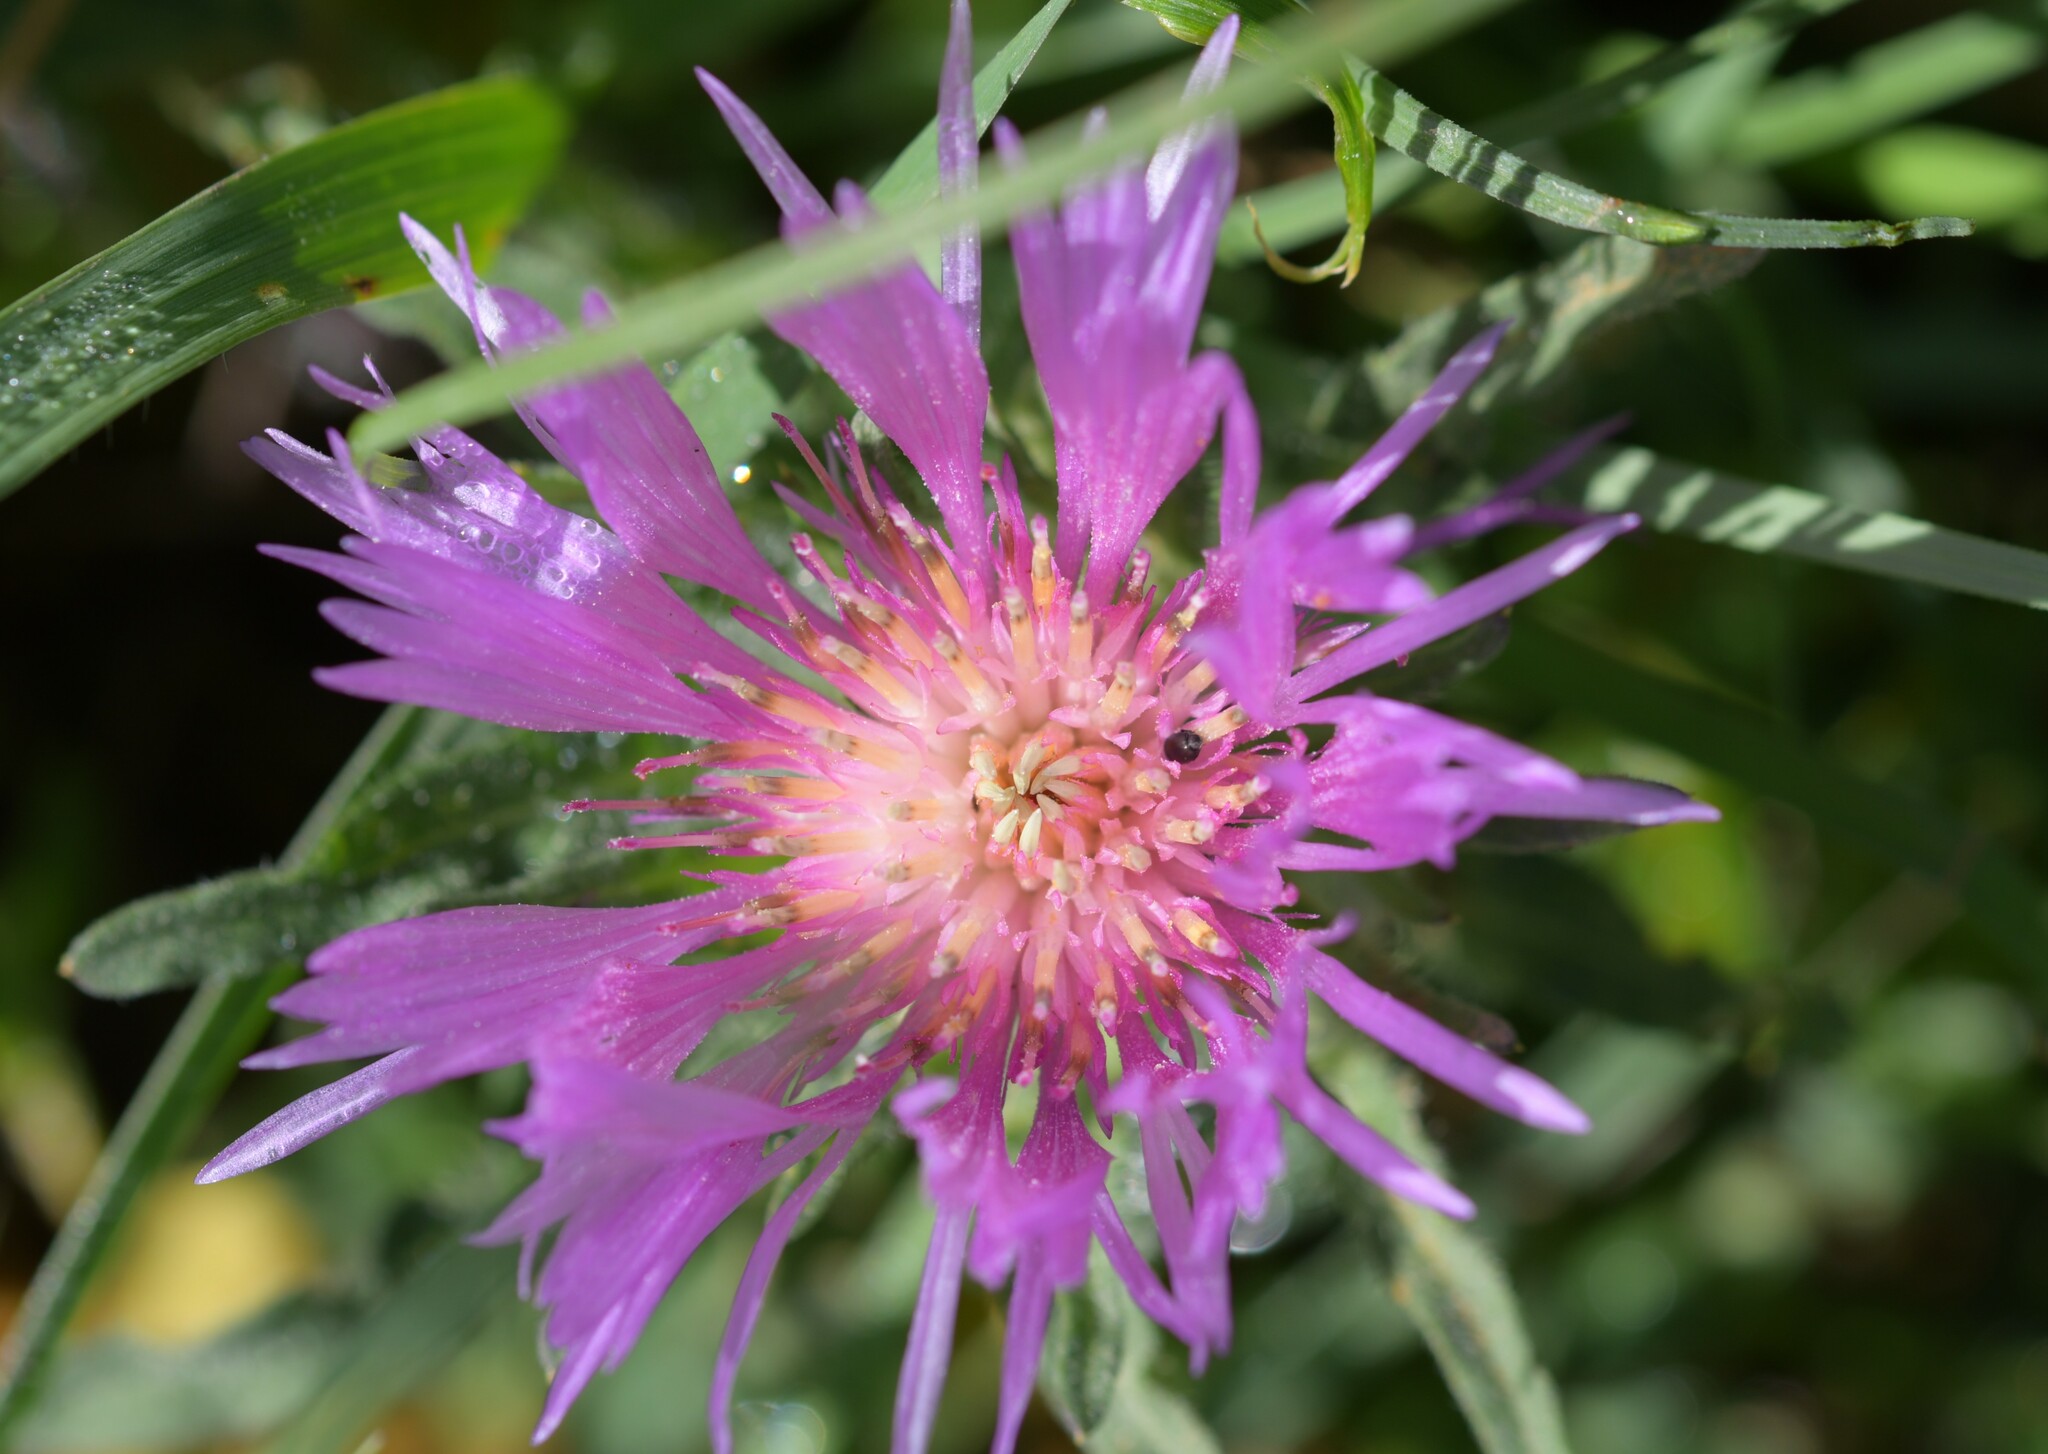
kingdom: Plantae
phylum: Tracheophyta
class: Magnoliopsida
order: Asterales
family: Asteraceae
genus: Centaurea
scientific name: Centaurea pullata
